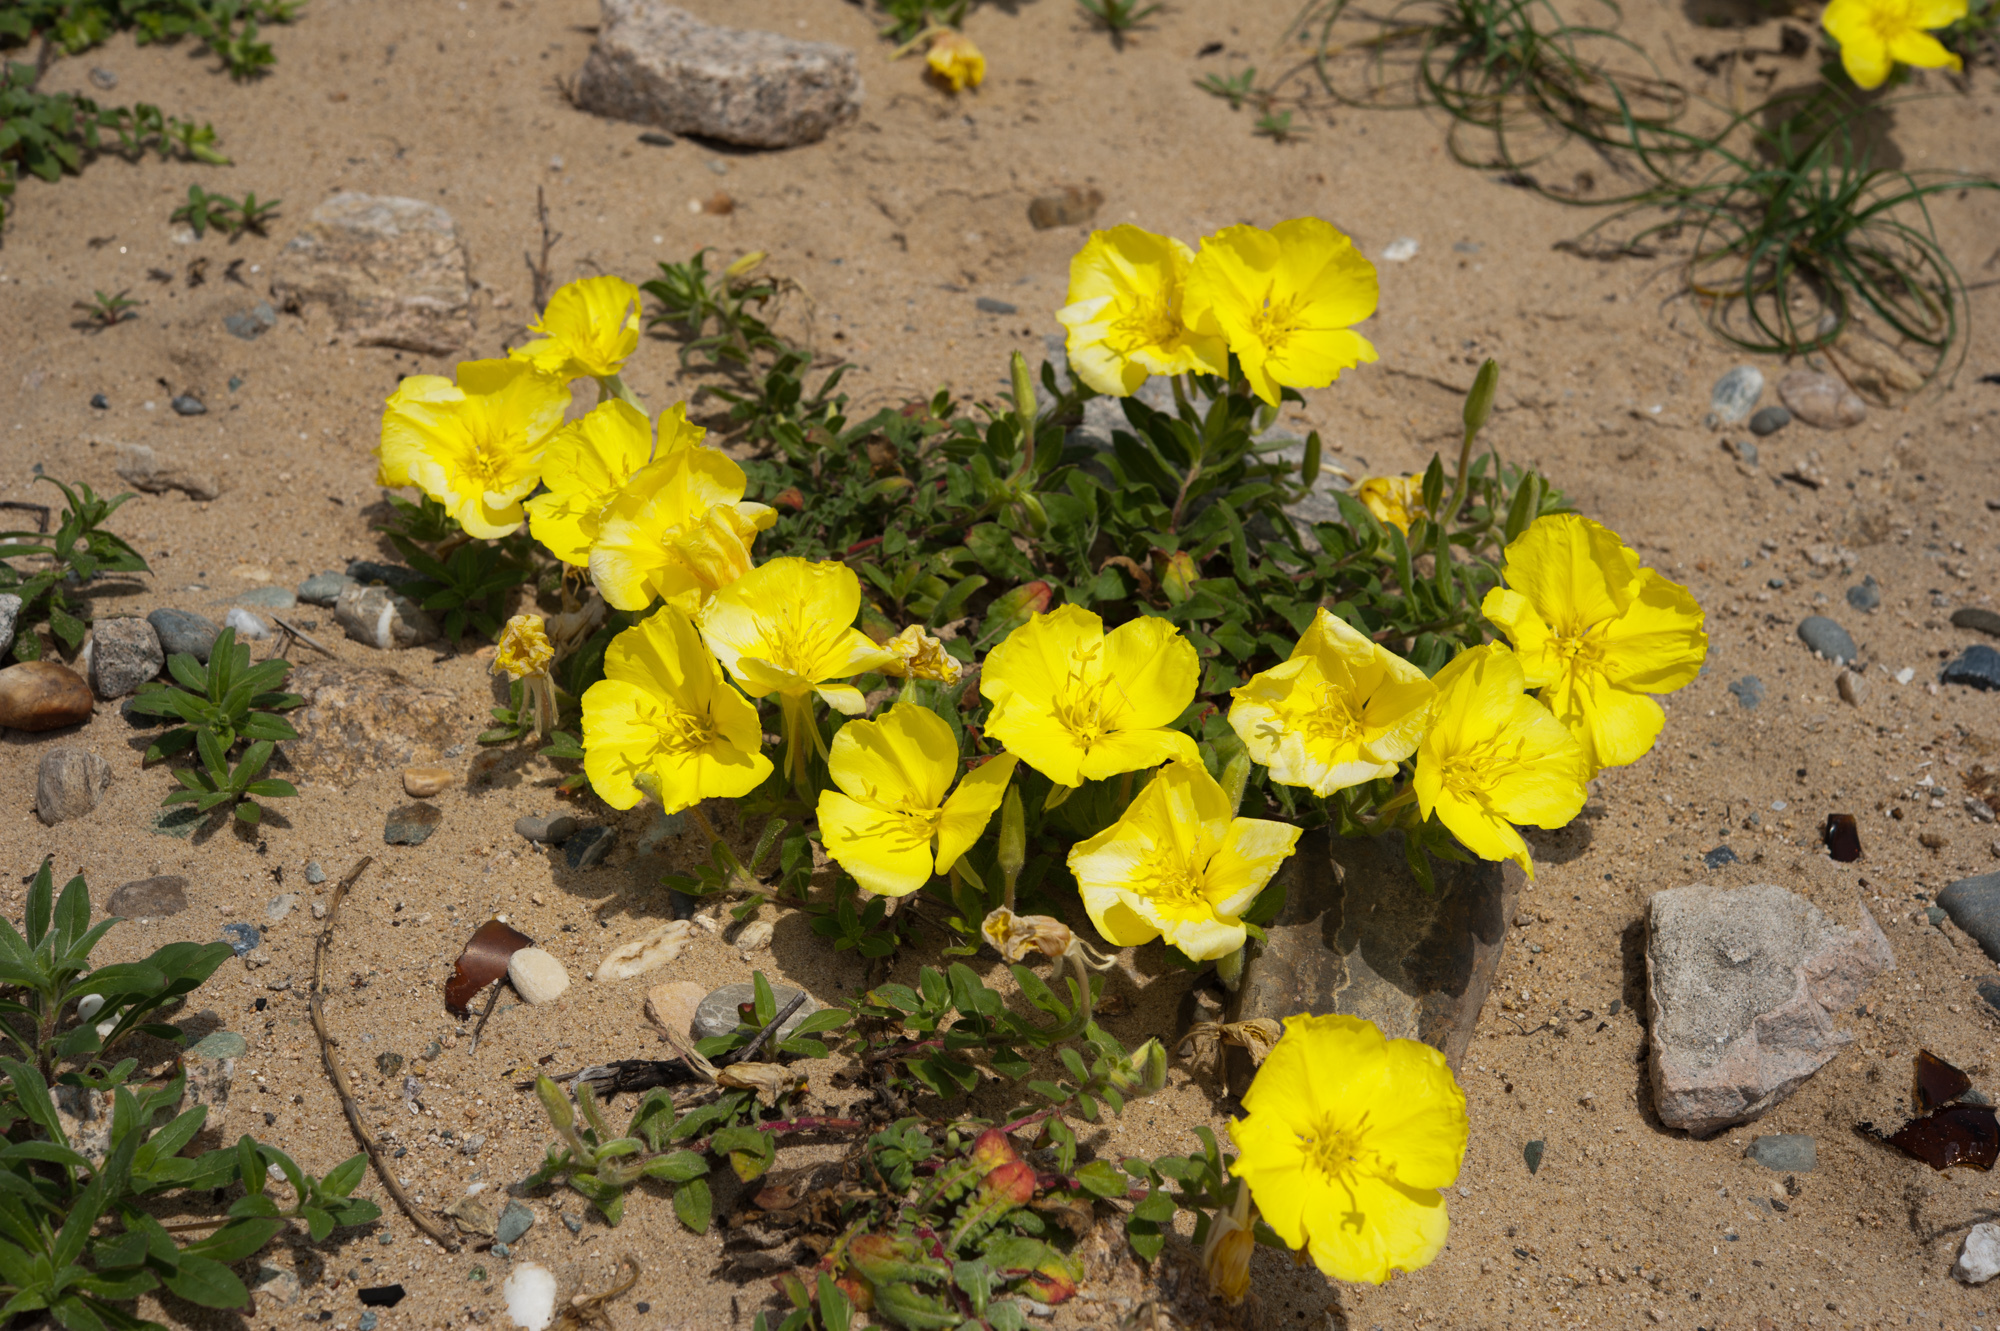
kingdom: Plantae
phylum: Tracheophyta
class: Magnoliopsida
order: Myrtales
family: Onagraceae
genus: Oenothera
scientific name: Oenothera drummondii
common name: Beach evening-primrose
